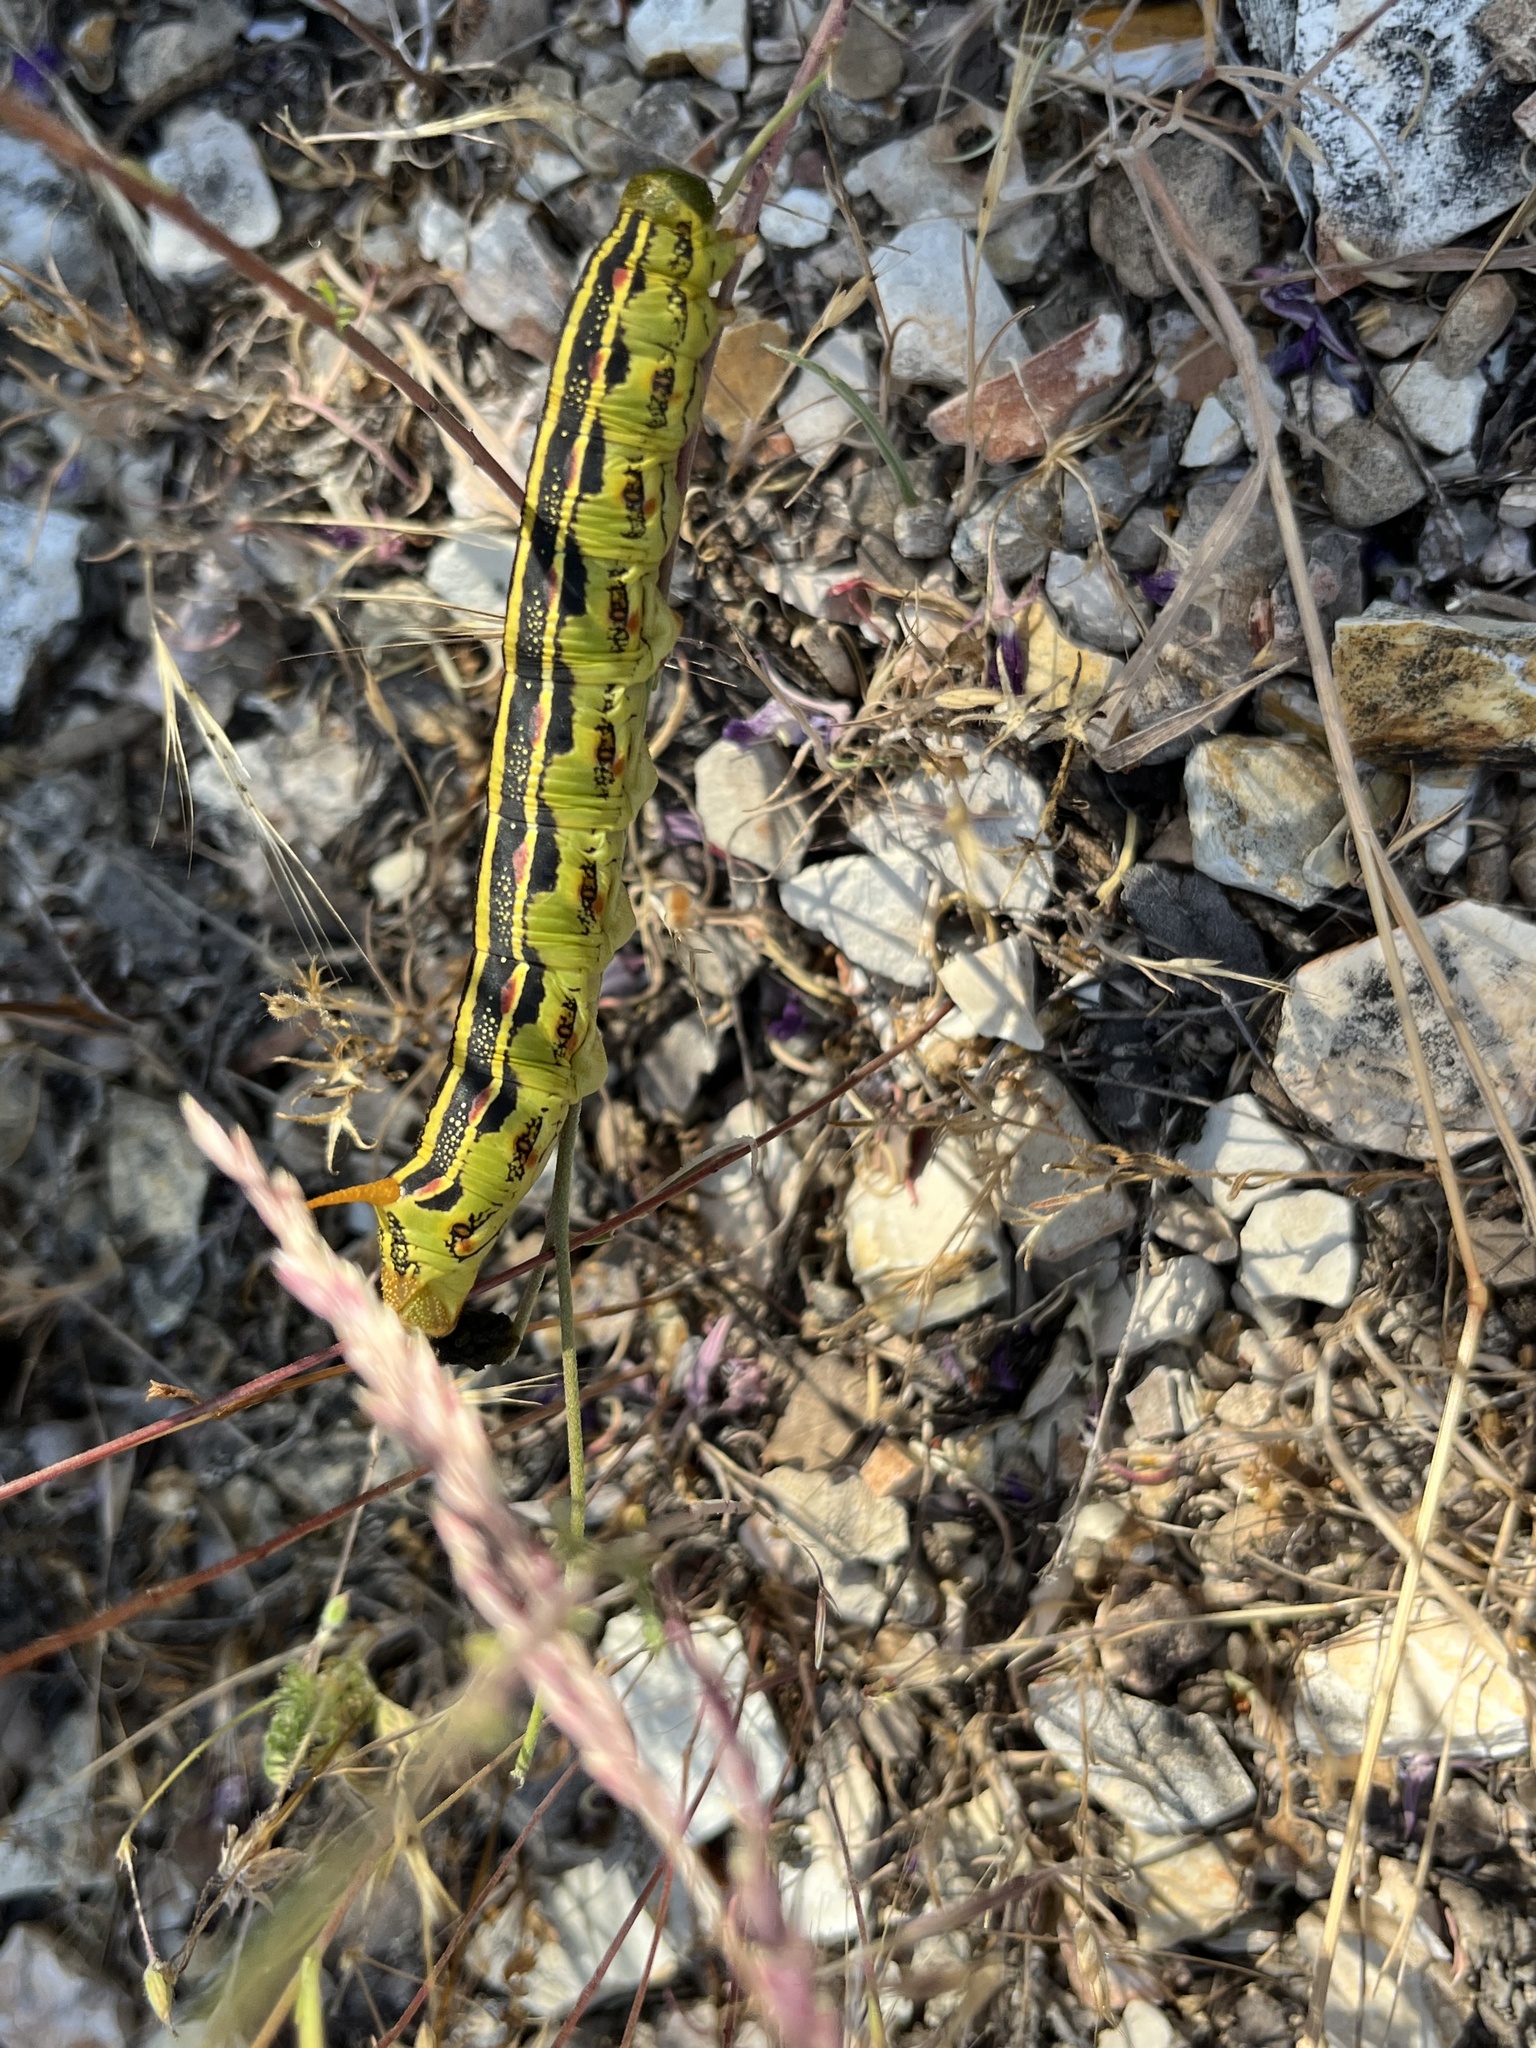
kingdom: Animalia
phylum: Arthropoda
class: Insecta
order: Lepidoptera
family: Sphingidae
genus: Hyles
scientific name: Hyles lineata
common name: White-lined sphinx
